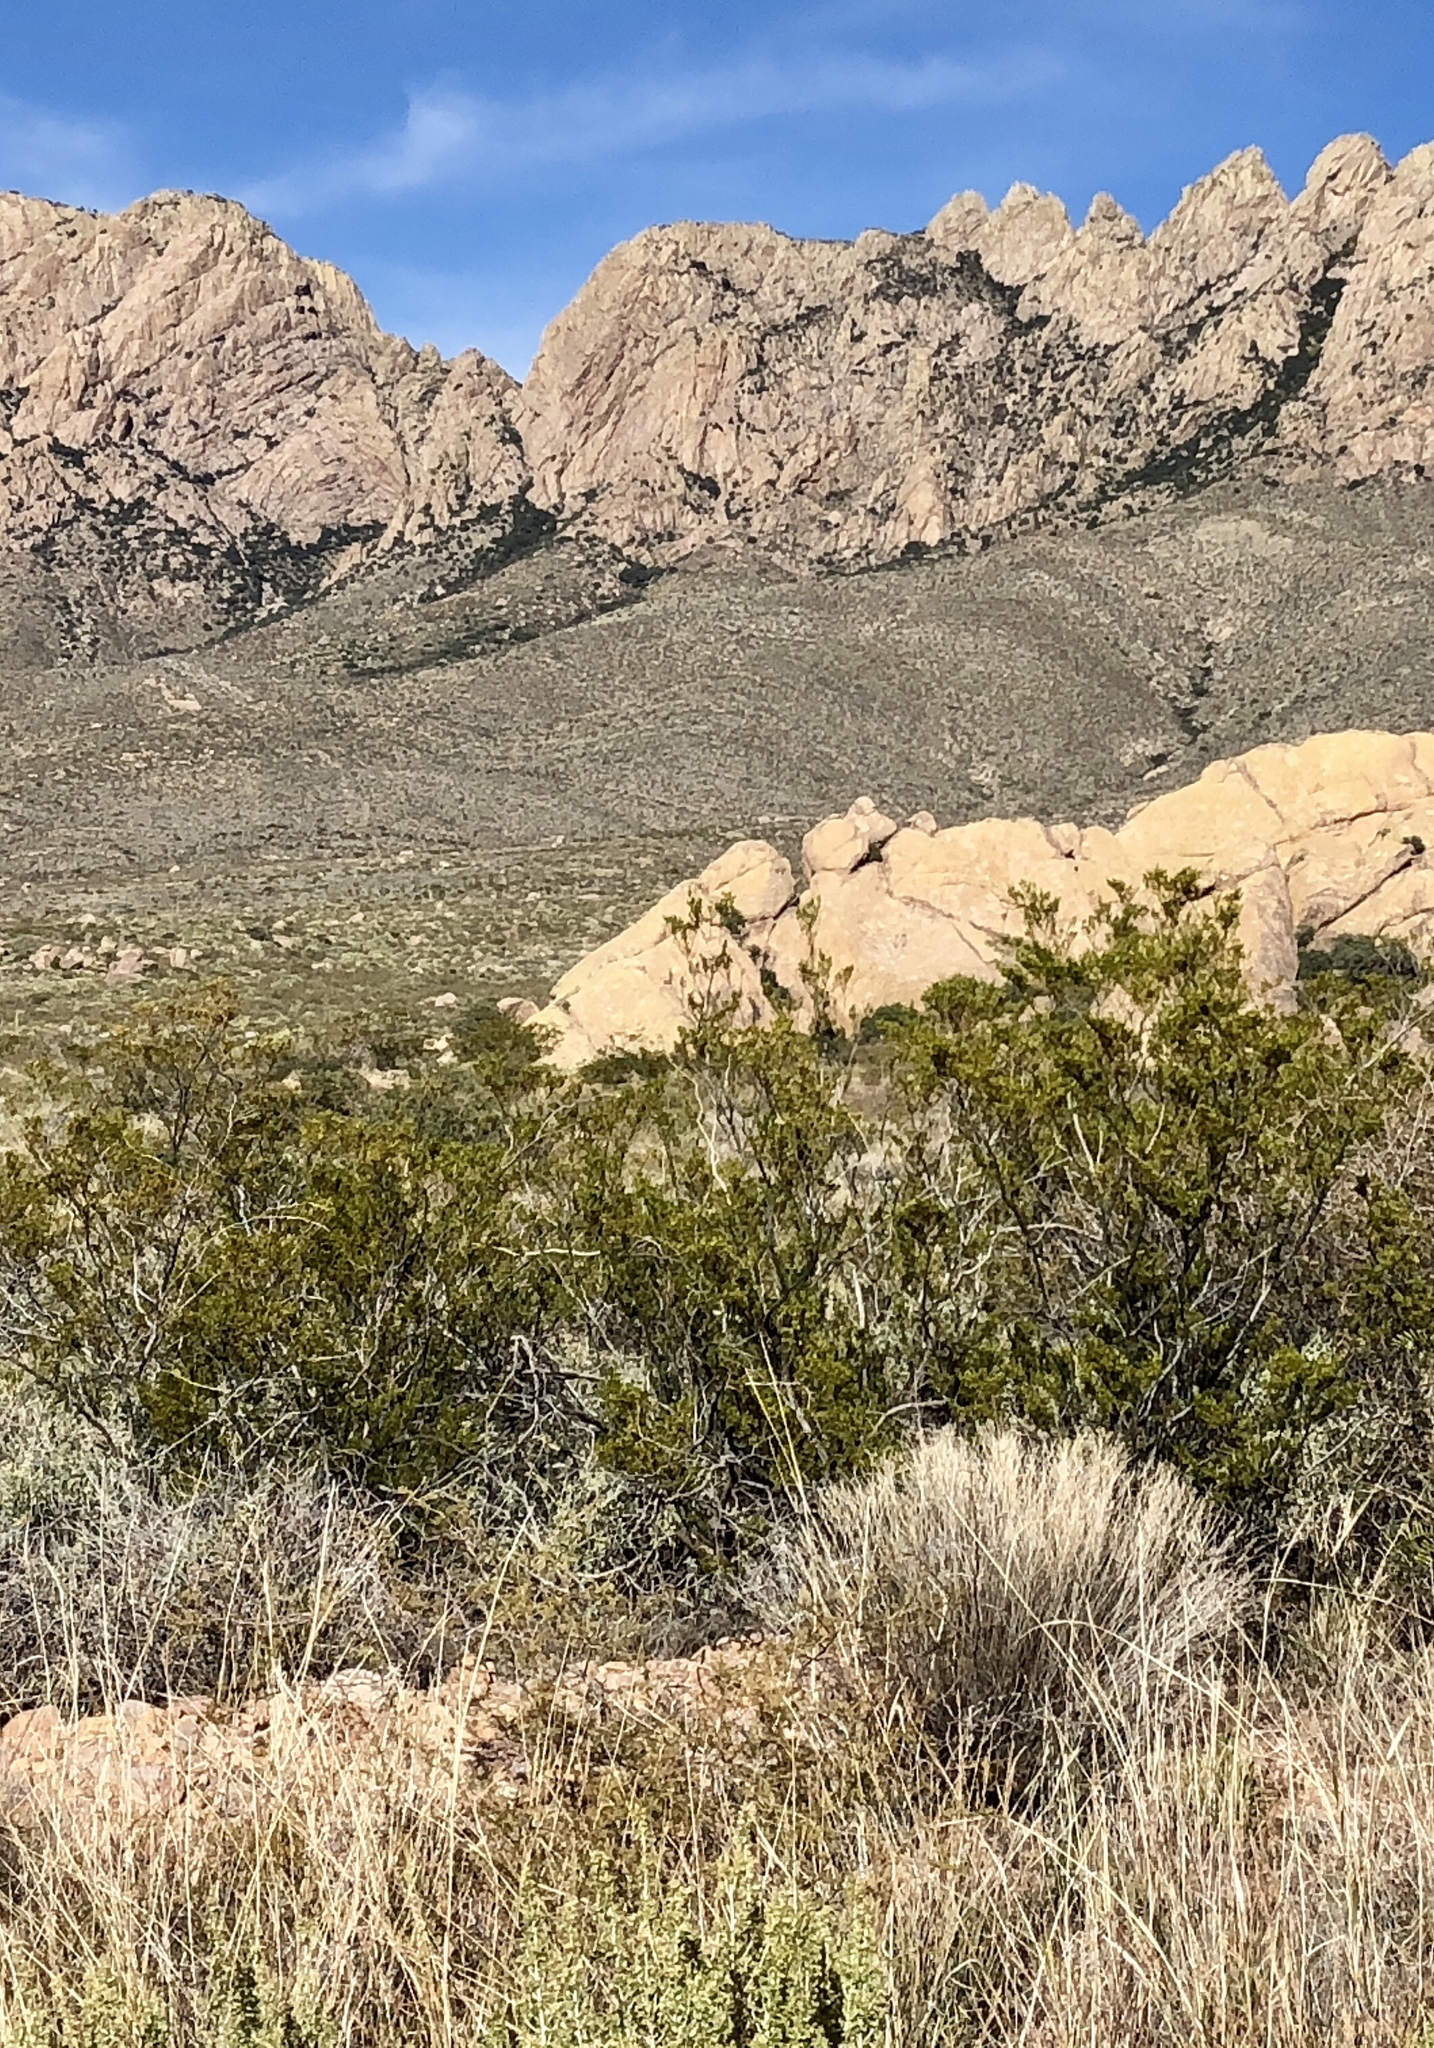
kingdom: Plantae
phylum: Tracheophyta
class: Magnoliopsida
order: Zygophyllales
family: Zygophyllaceae
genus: Larrea
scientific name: Larrea tridentata
